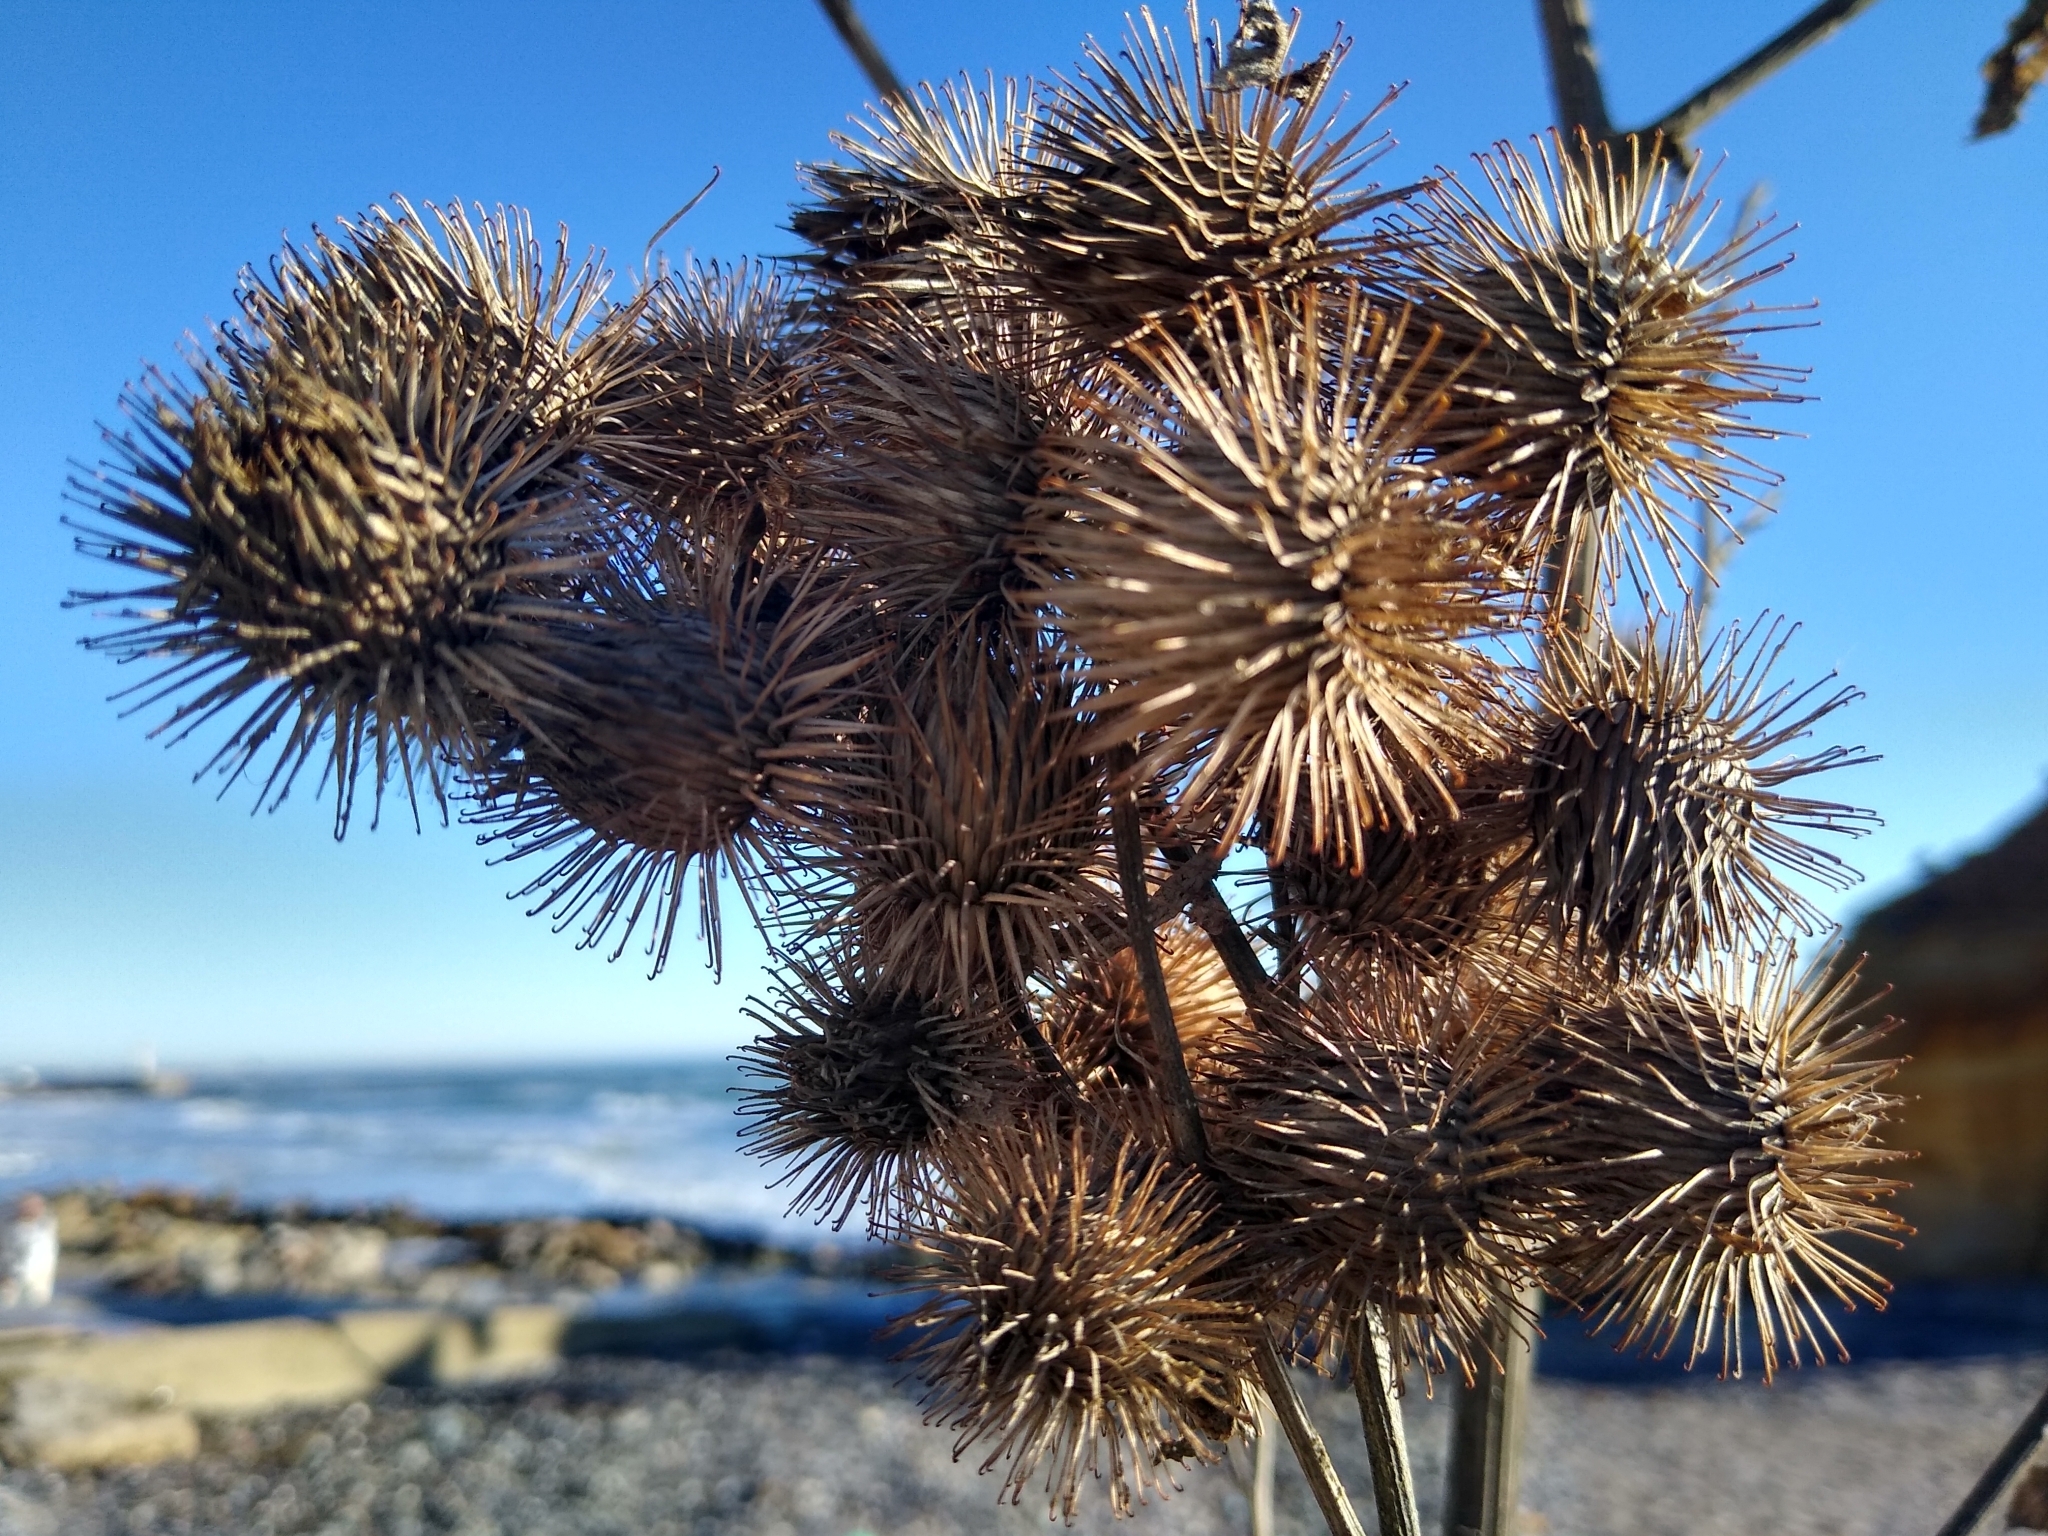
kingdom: Plantae
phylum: Tracheophyta
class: Magnoliopsida
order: Asterales
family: Asteraceae
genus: Arctium
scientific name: Arctium lappa
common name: Greater burdock
